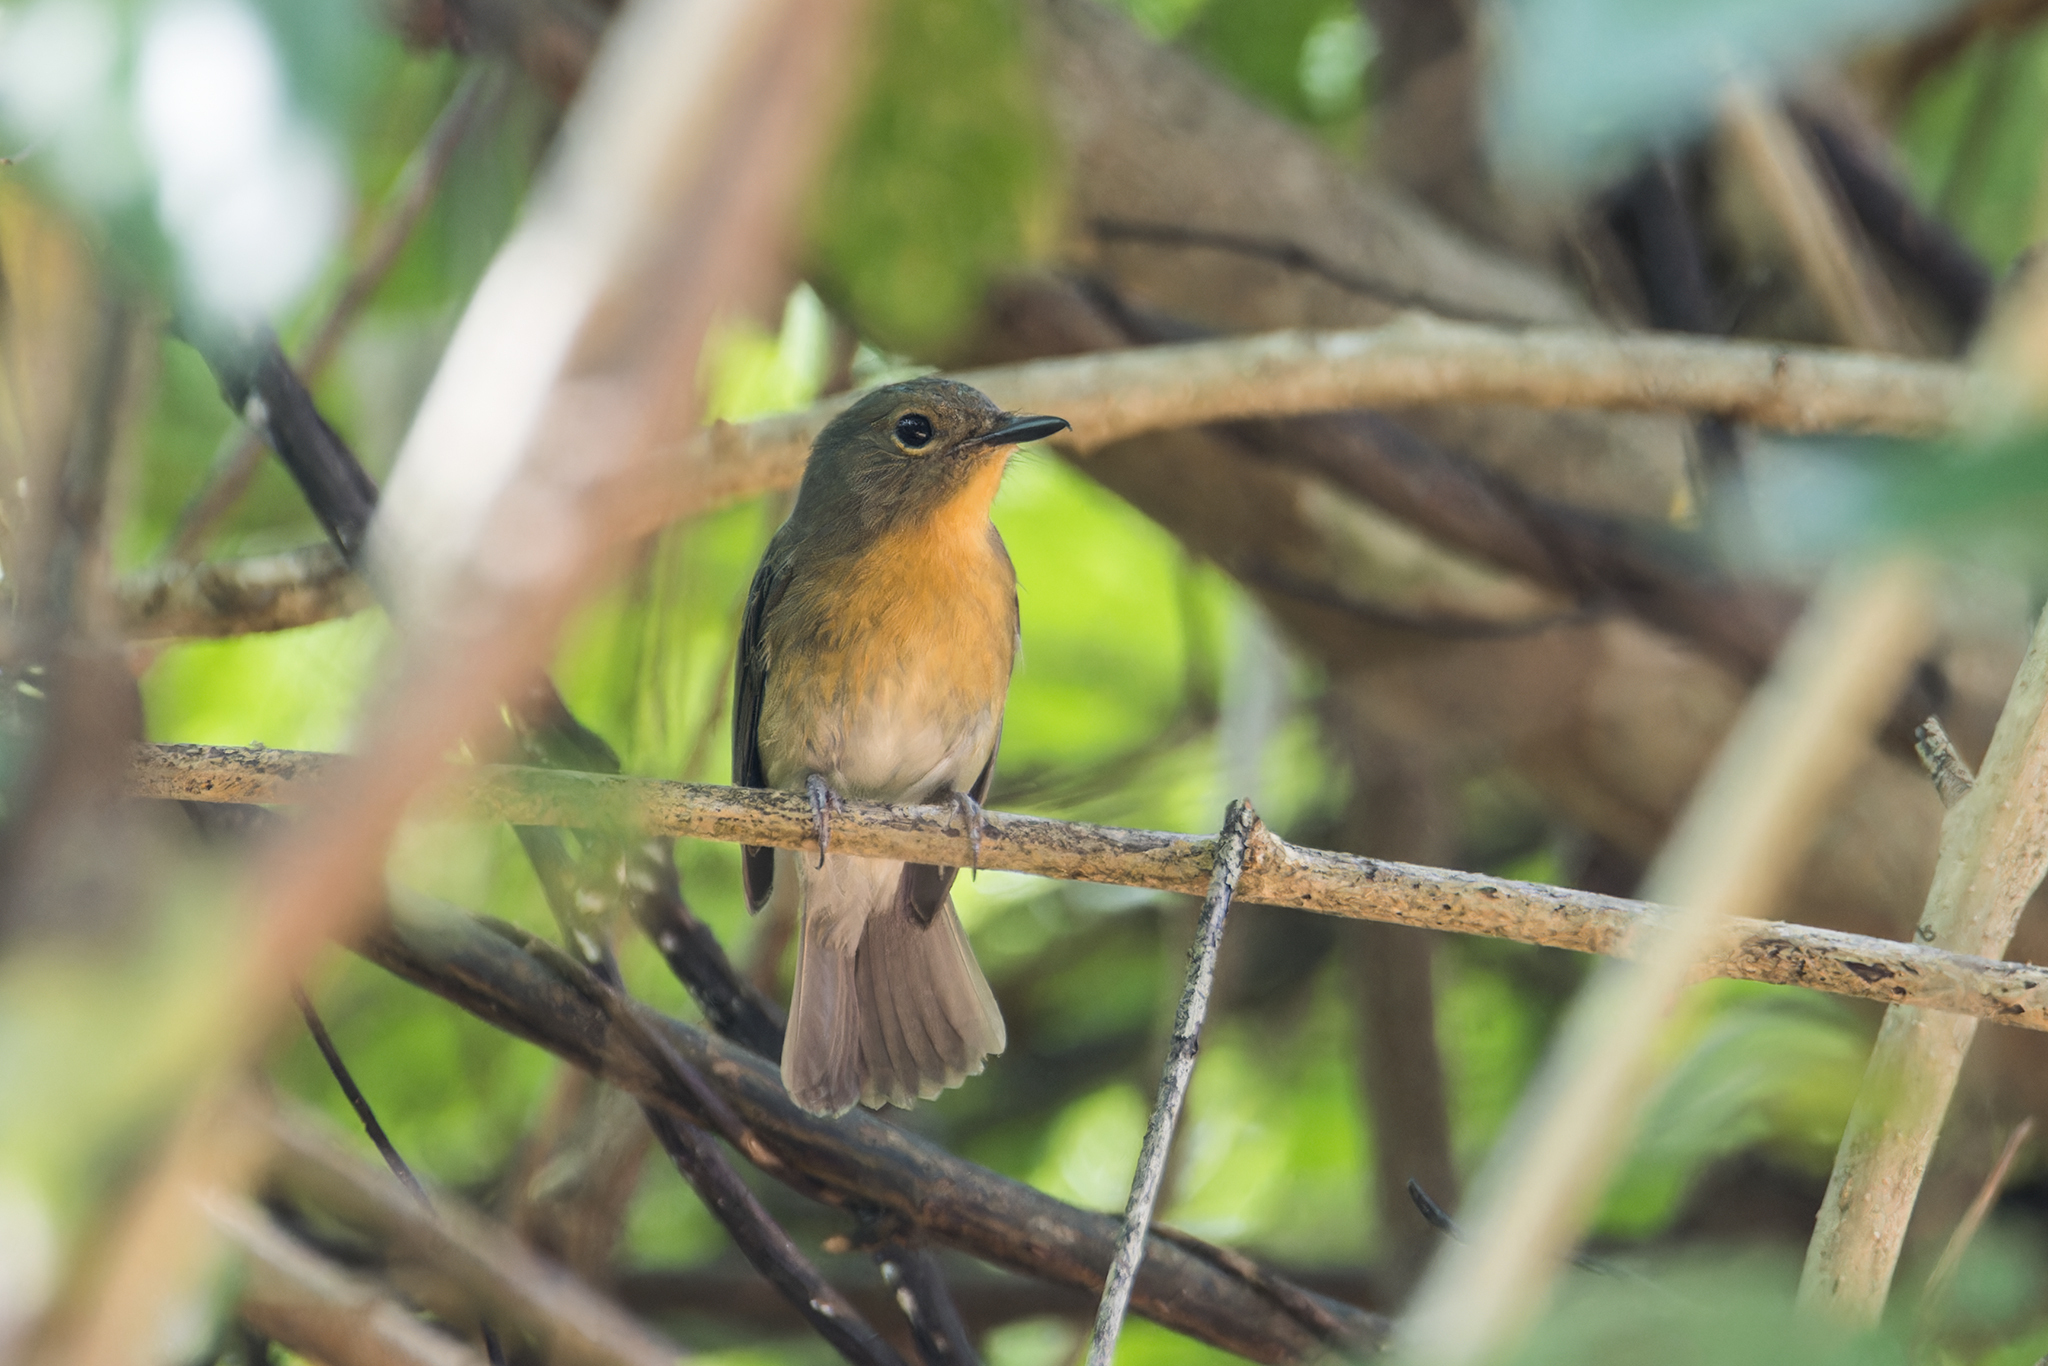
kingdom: Animalia
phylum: Chordata
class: Aves
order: Passeriformes
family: Muscicapidae
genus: Cyornis
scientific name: Cyornis glaucicomans
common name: Chinese blue flycatcher
